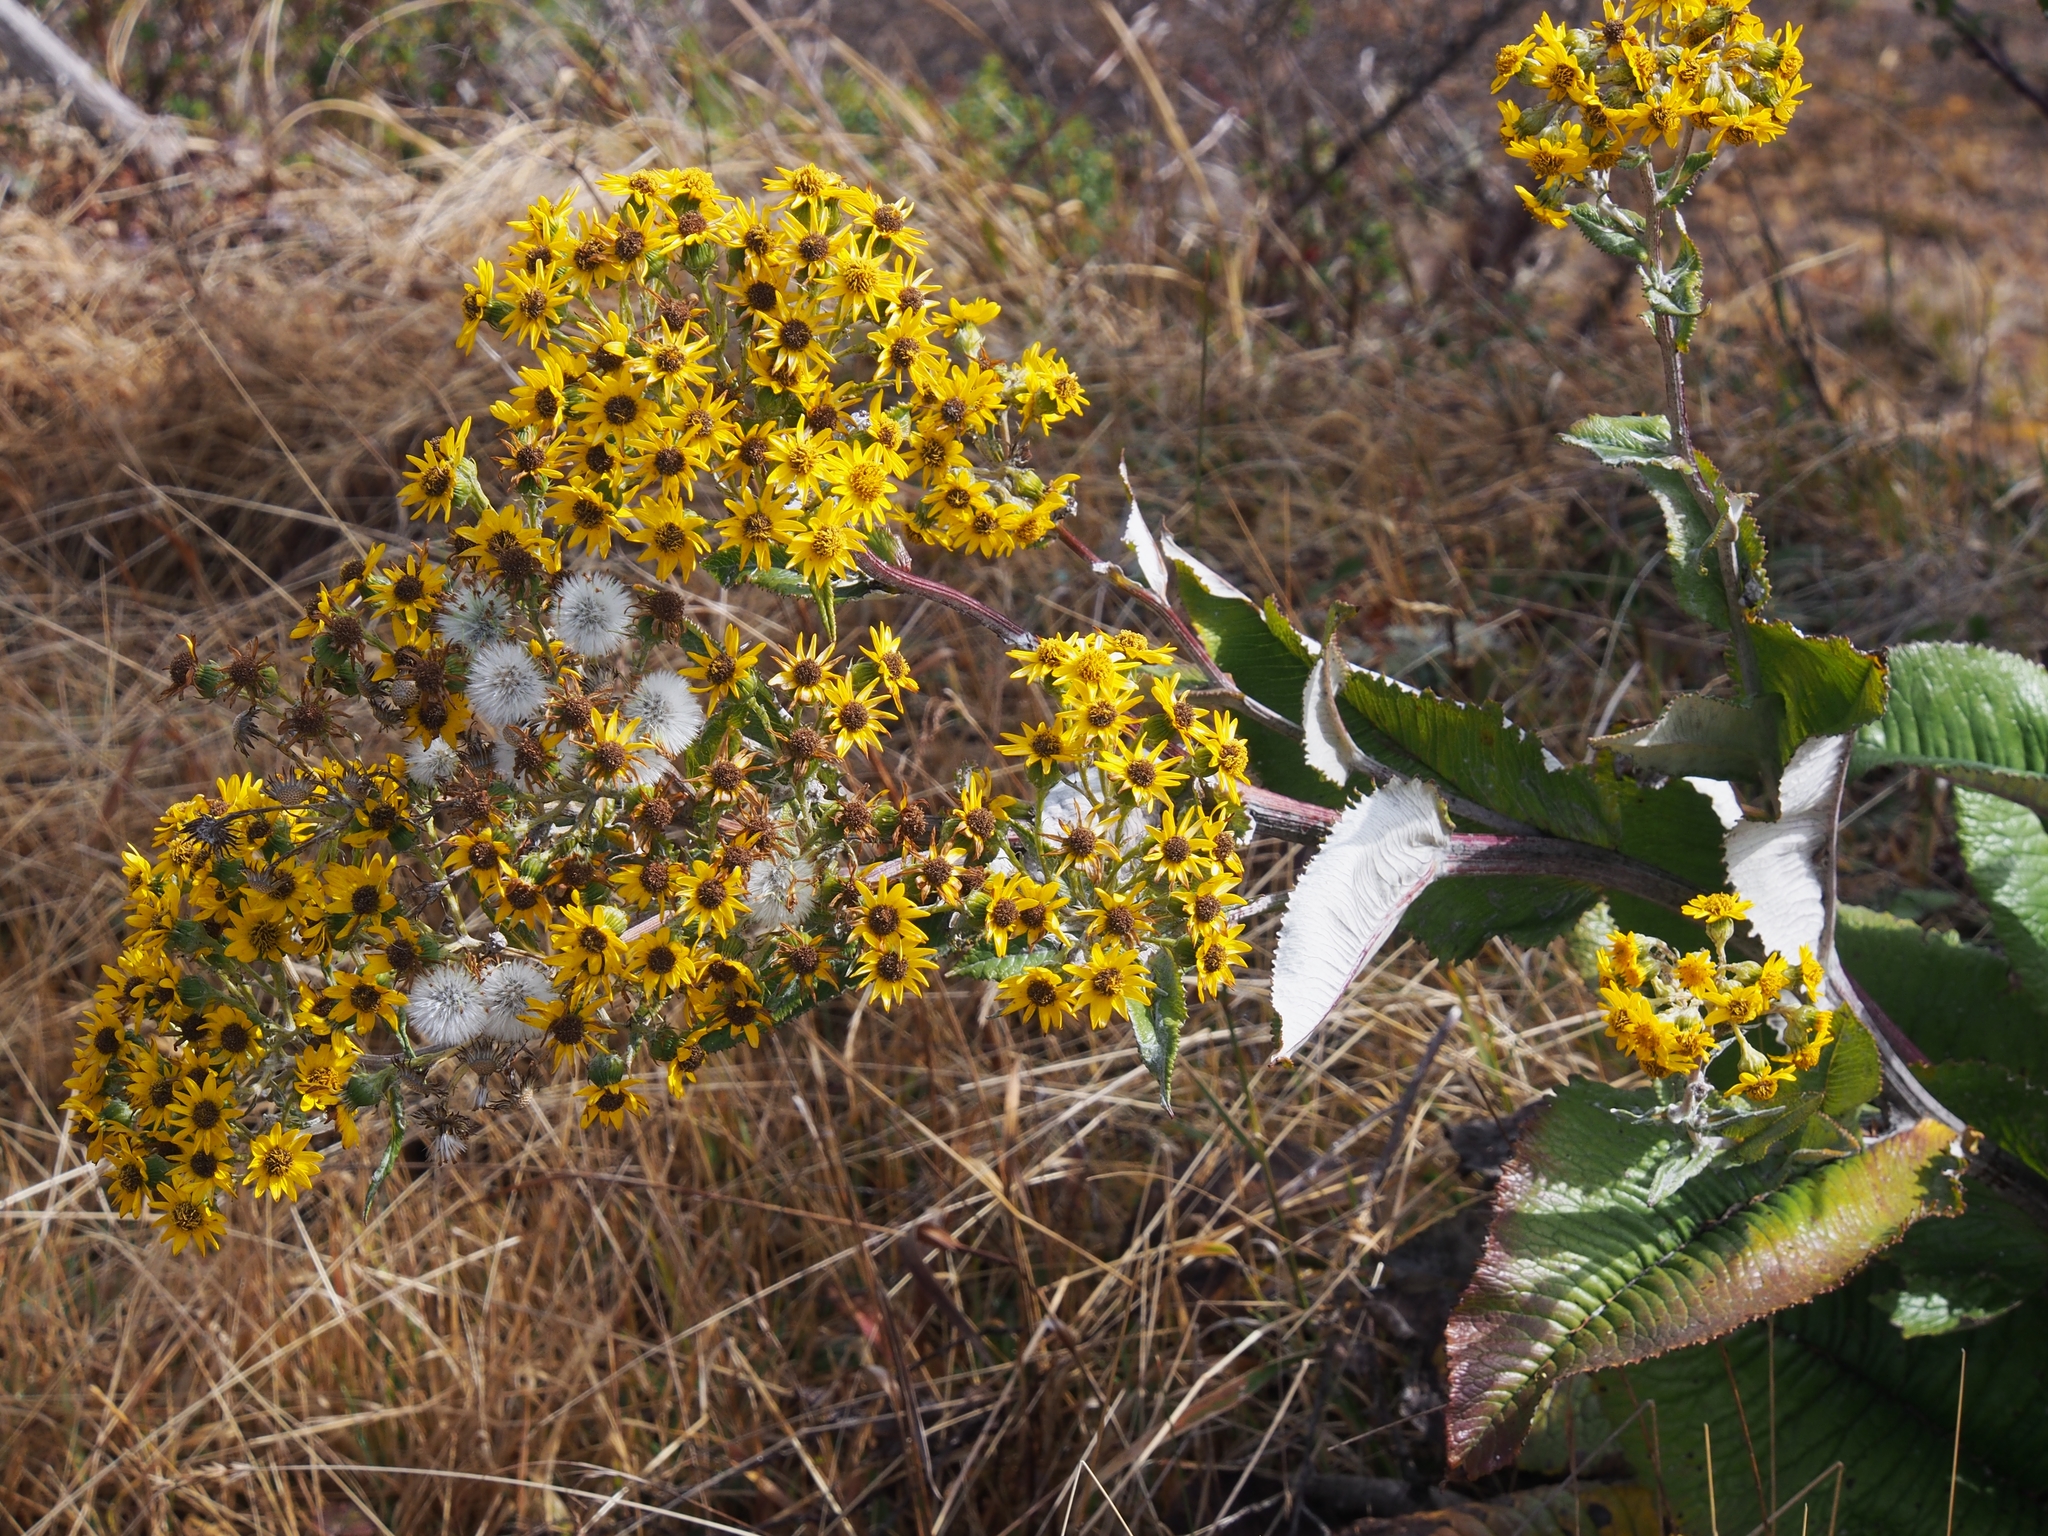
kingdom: Plantae
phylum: Tracheophyta
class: Magnoliopsida
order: Asterales
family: Asteraceae
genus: Senecio
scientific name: Senecio oerstedianus
